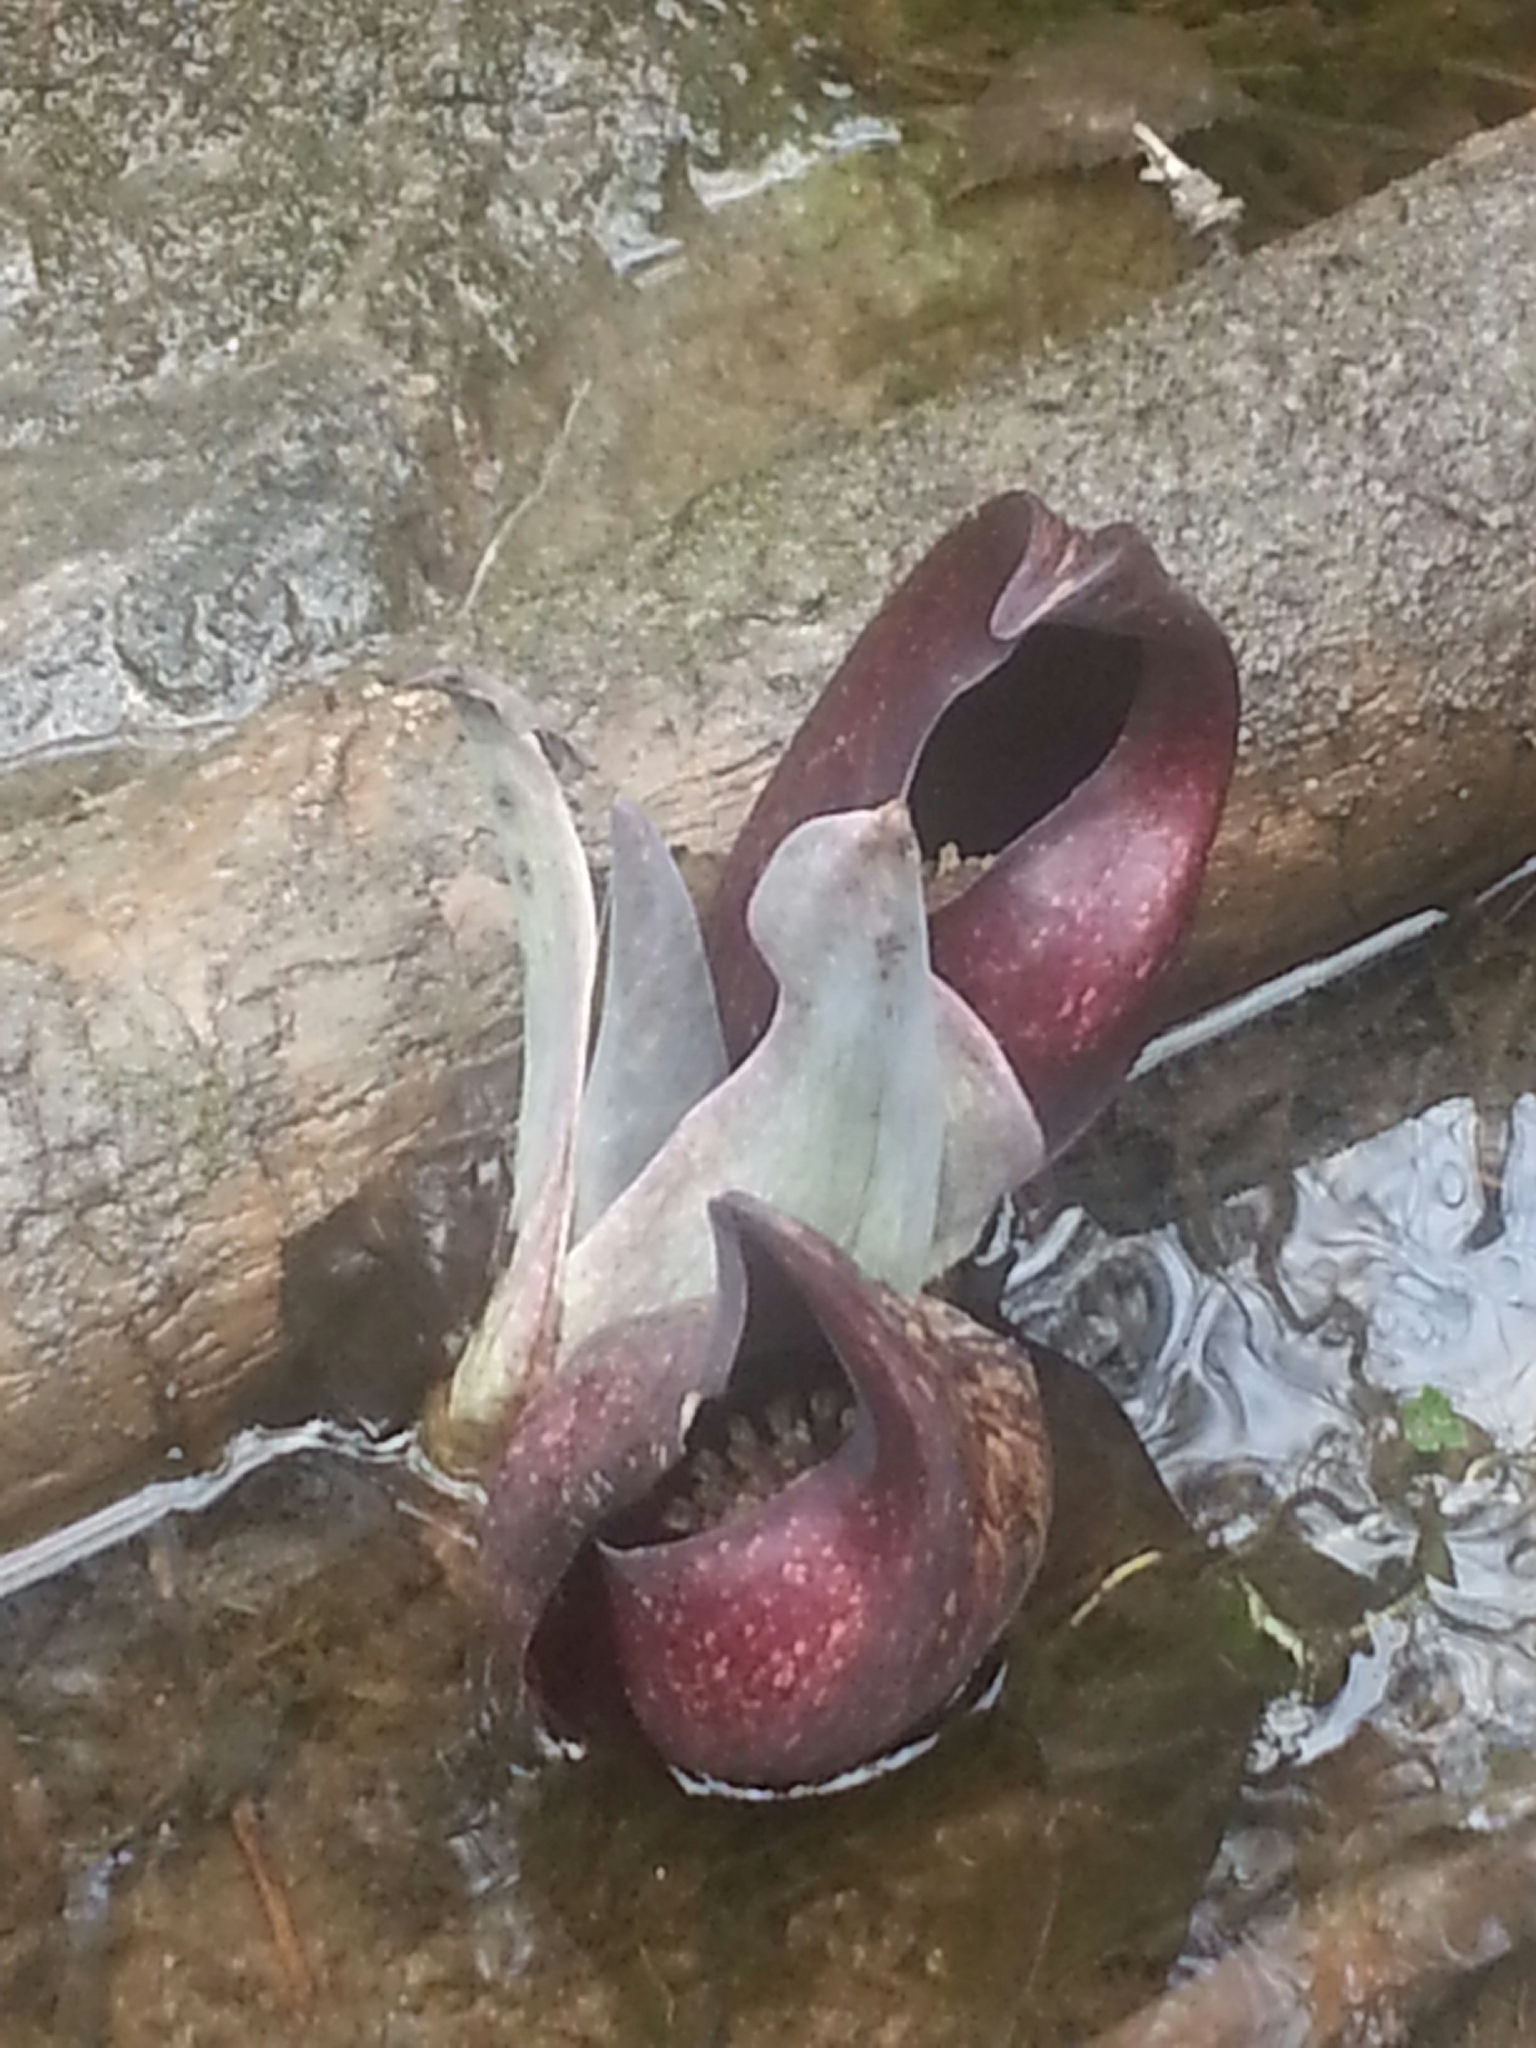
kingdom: Plantae
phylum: Tracheophyta
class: Liliopsida
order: Alismatales
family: Araceae
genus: Symplocarpus
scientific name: Symplocarpus foetidus
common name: Eastern skunk cabbage
